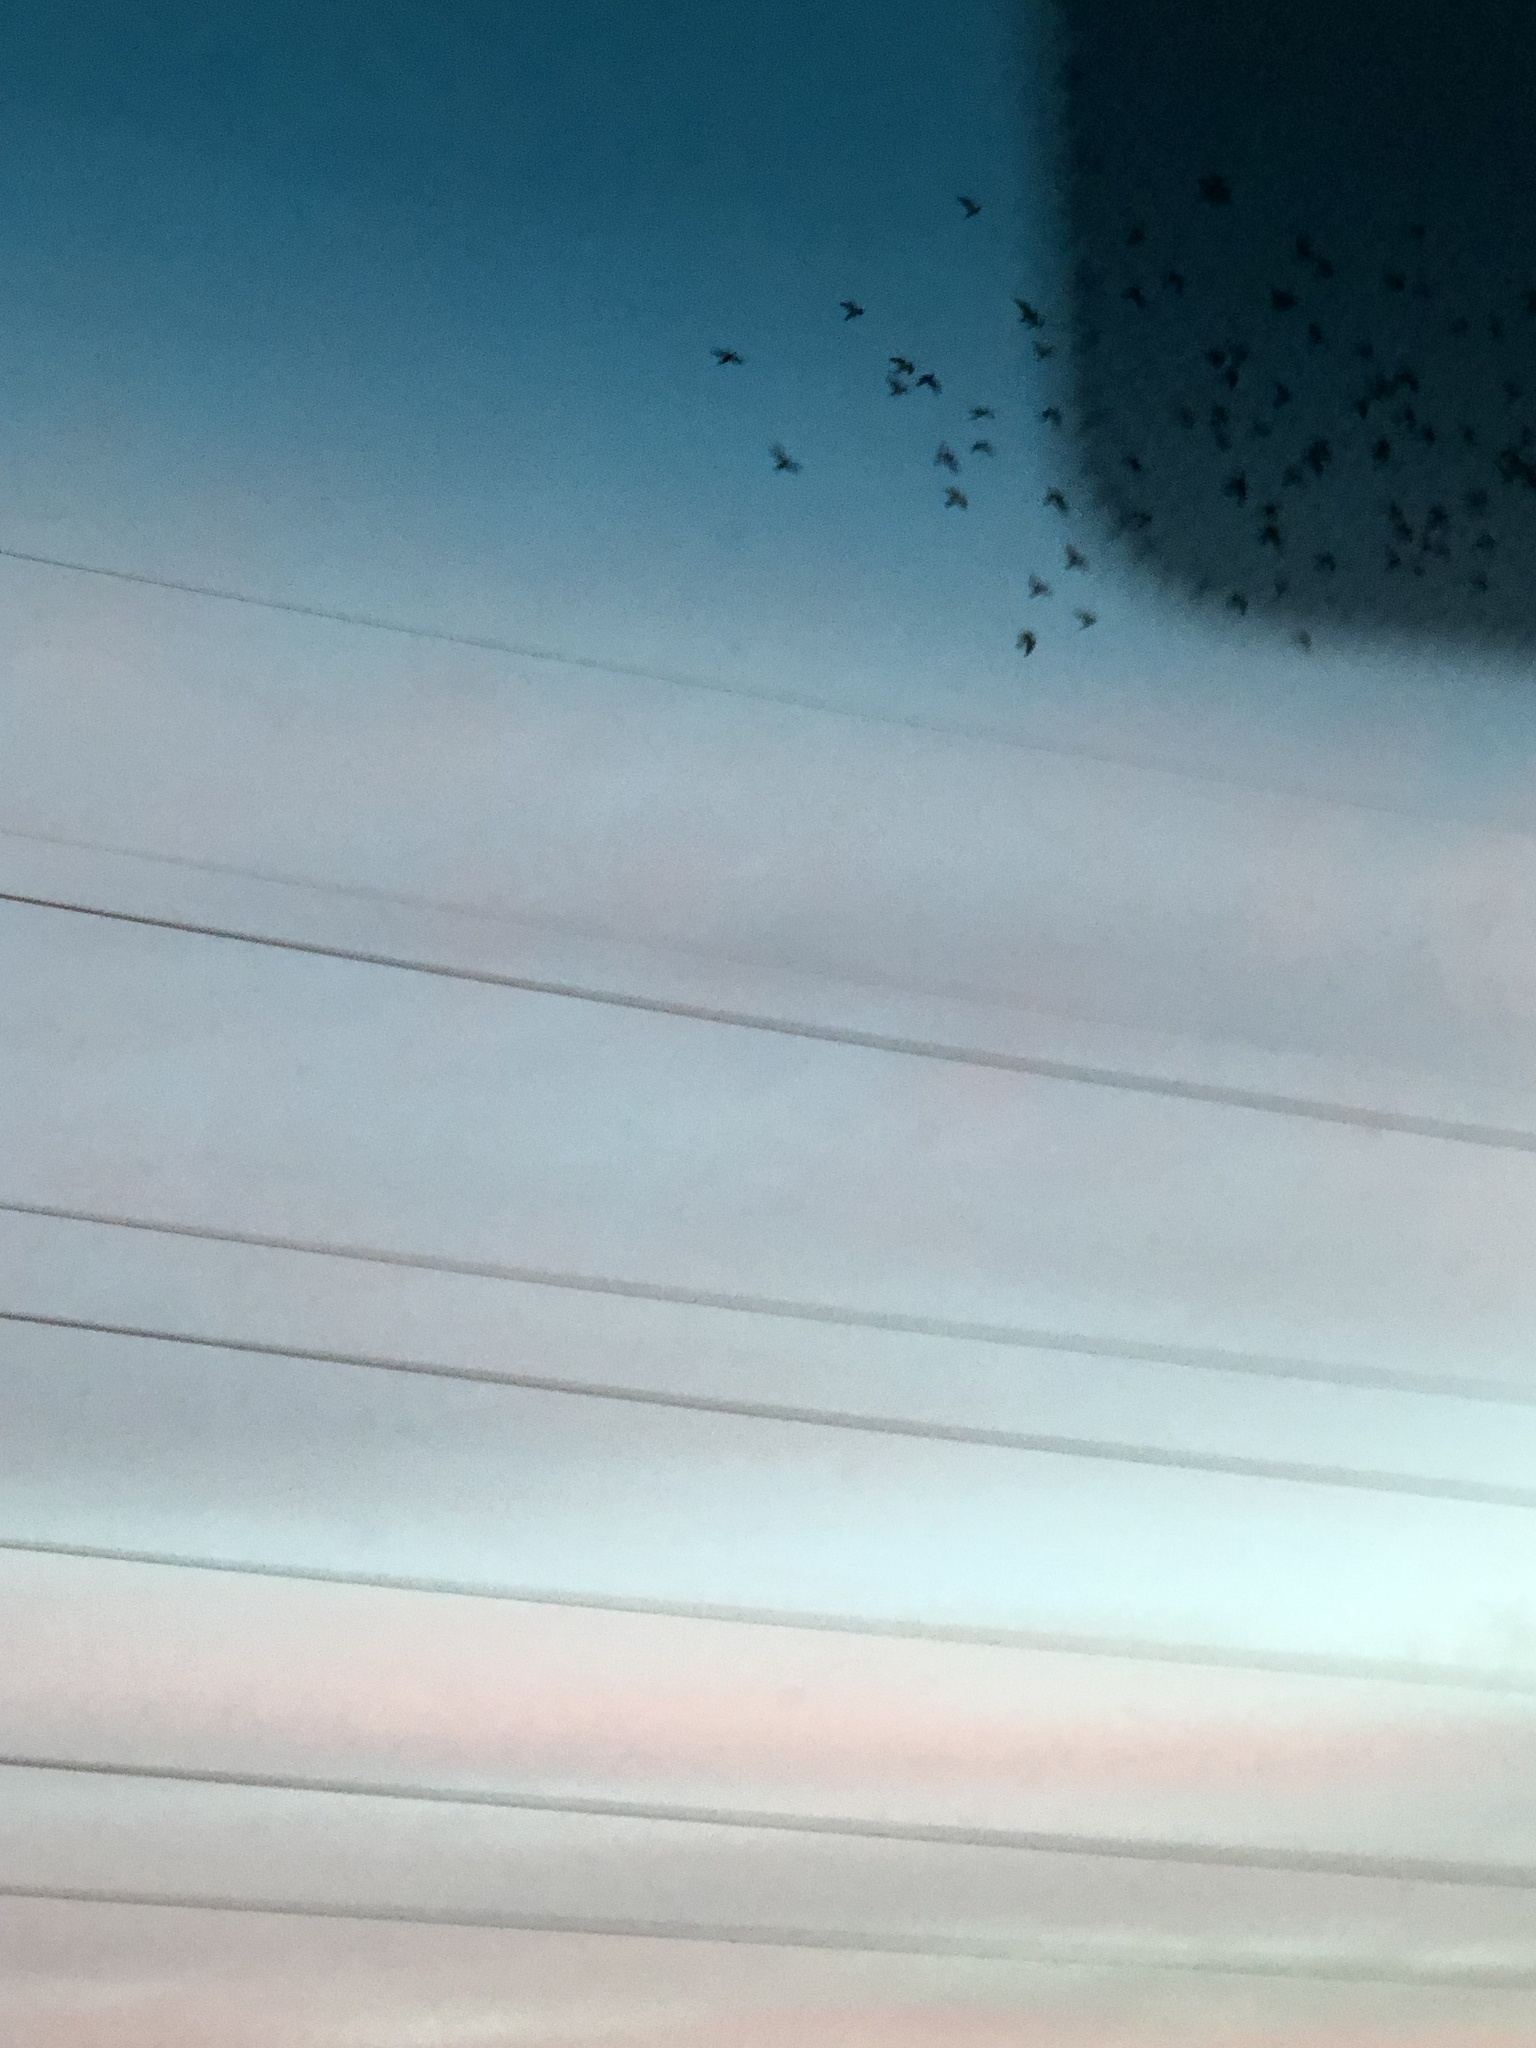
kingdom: Animalia
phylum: Chordata
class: Aves
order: Columbiformes
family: Columbidae
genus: Columba
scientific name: Columba livia
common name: Rock pigeon
